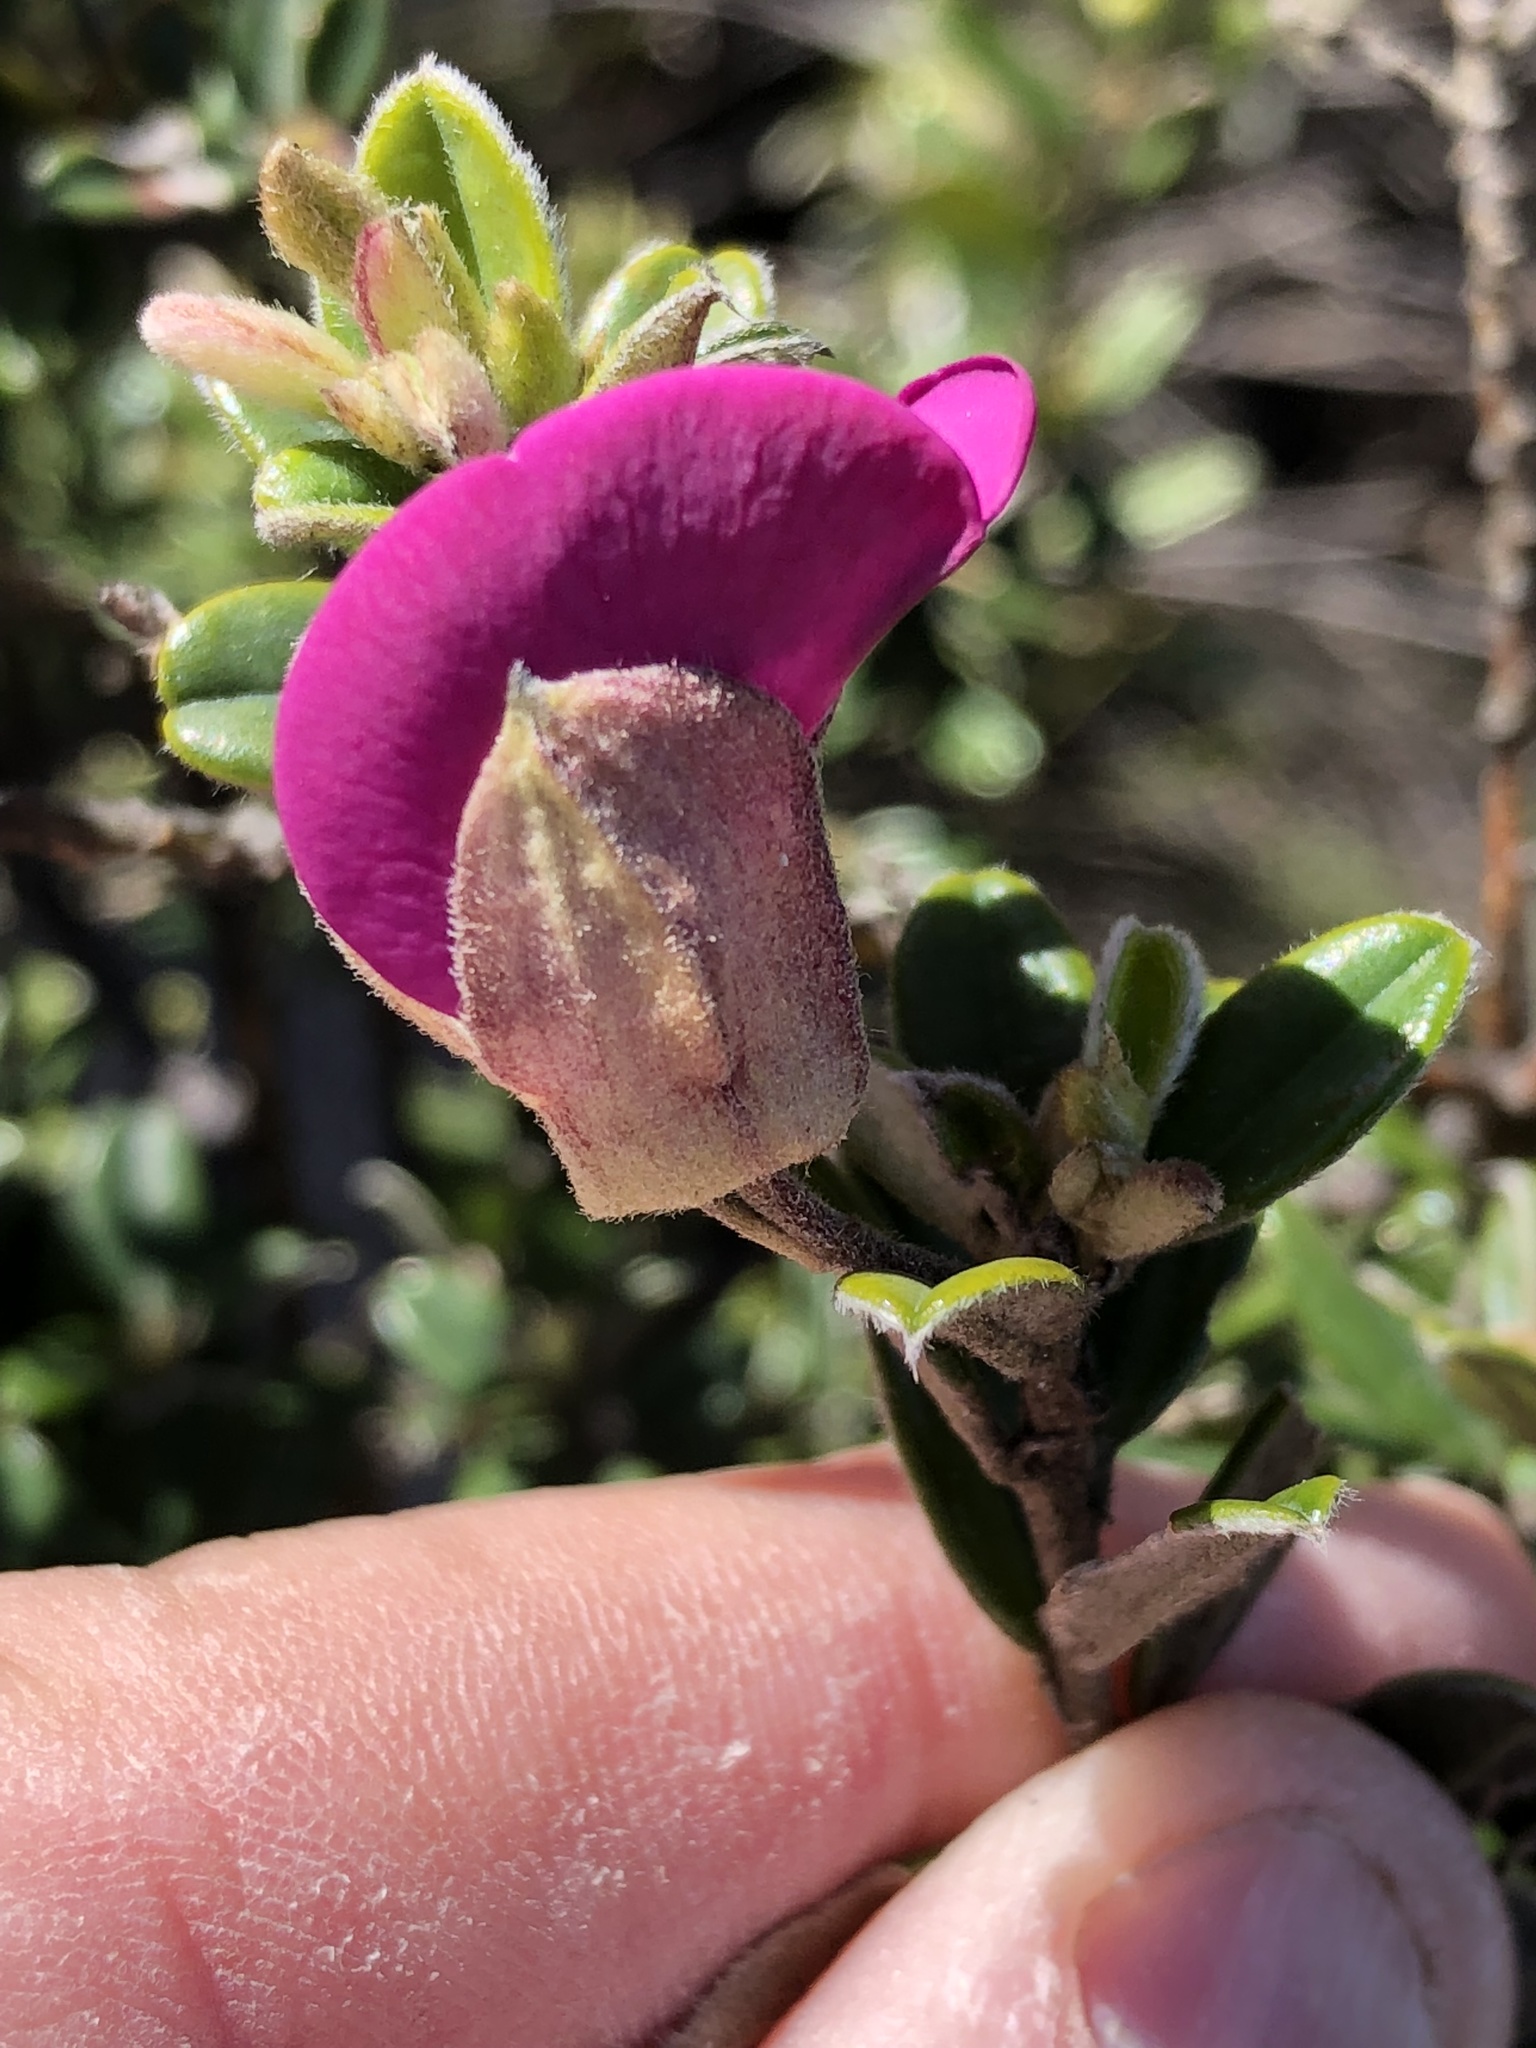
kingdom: Plantae
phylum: Tracheophyta
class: Magnoliopsida
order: Fabales
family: Fabaceae
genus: Podalyria
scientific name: Podalyria buxifolia
